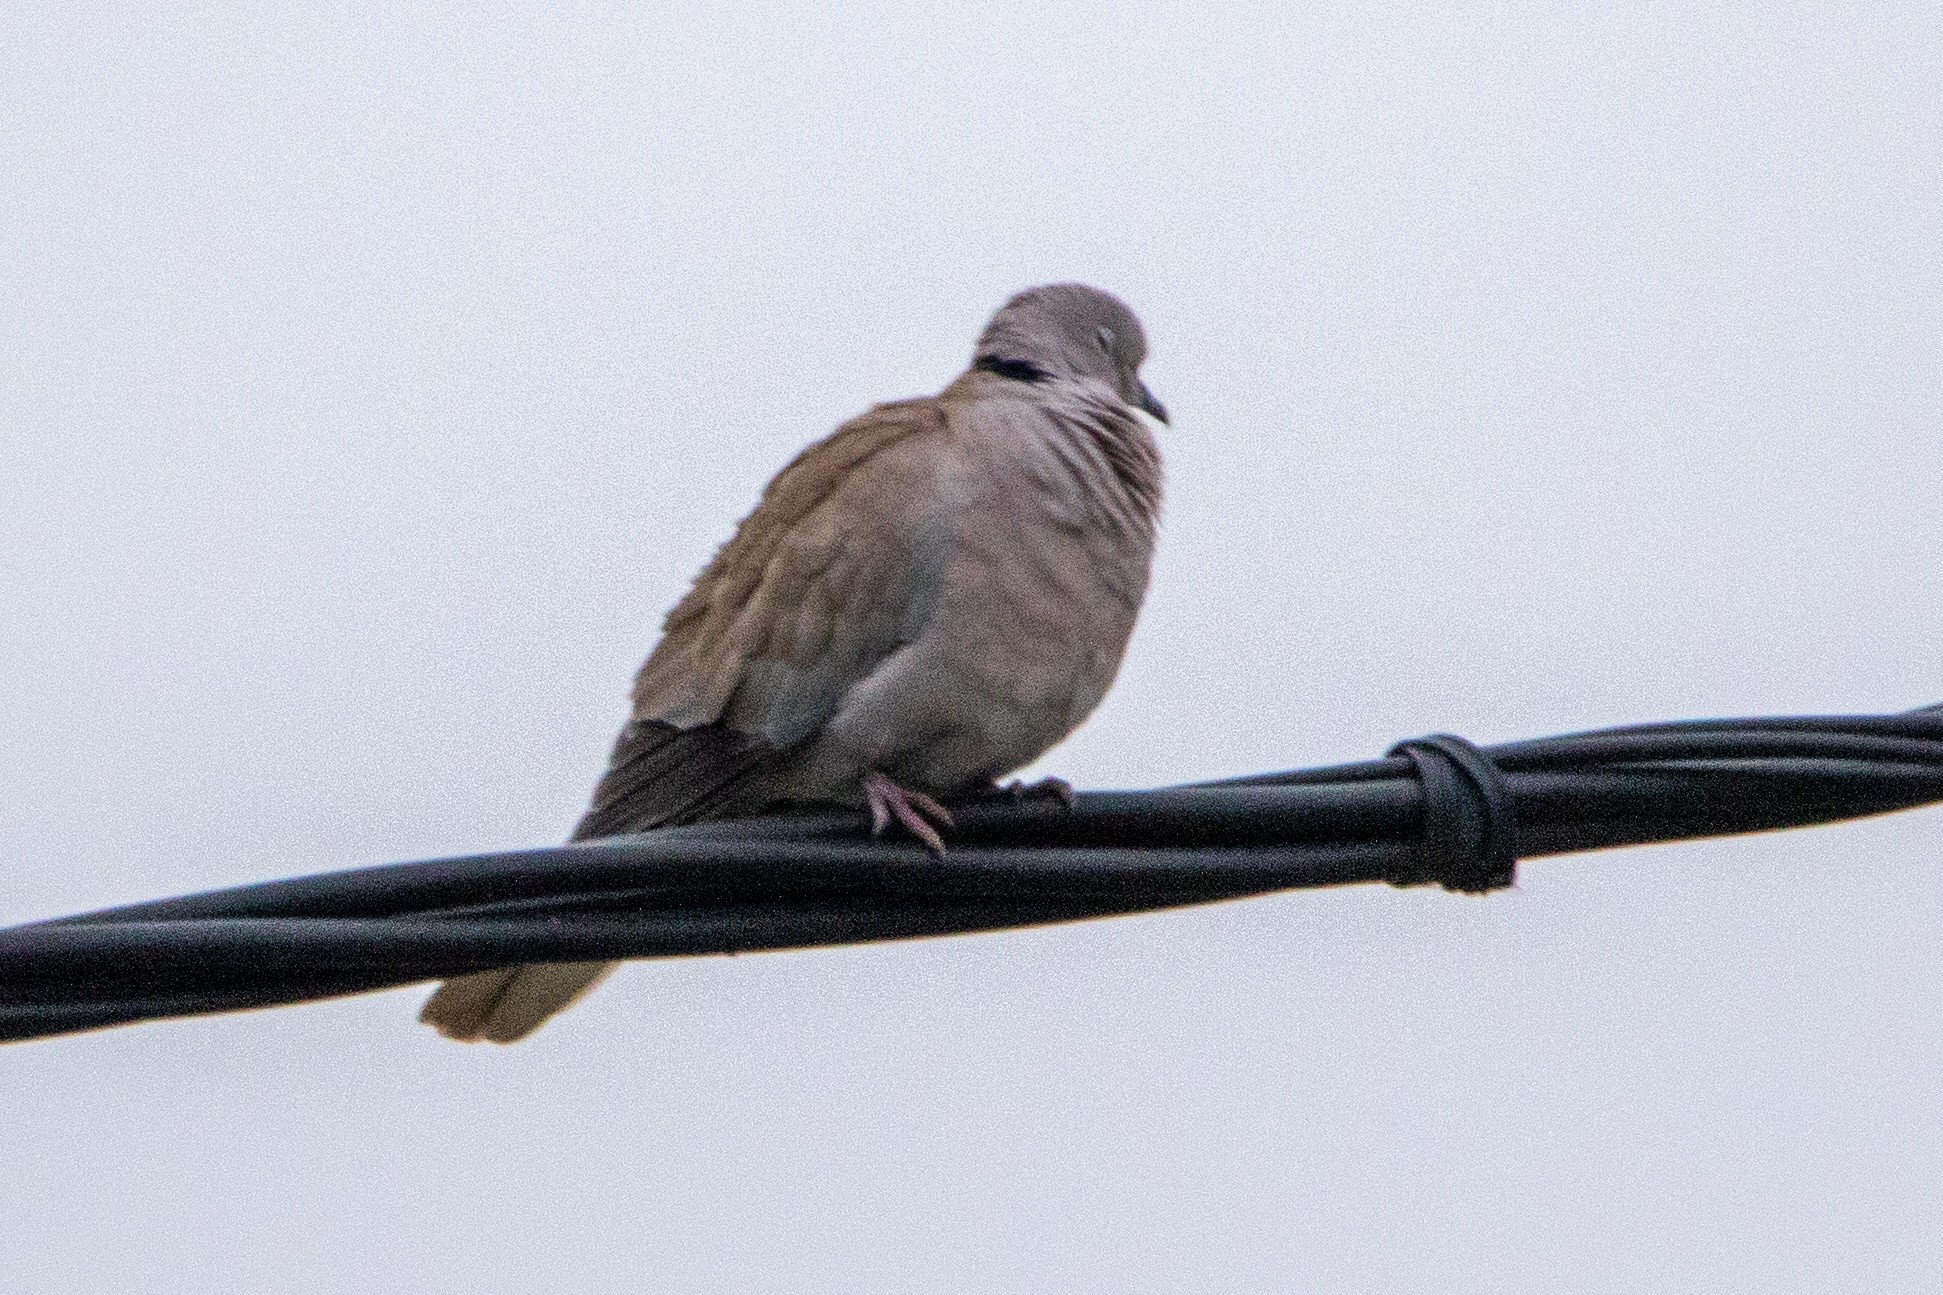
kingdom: Animalia
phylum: Chordata
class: Aves
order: Columbiformes
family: Columbidae
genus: Streptopelia
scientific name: Streptopelia decaocto
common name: Eurasian collared dove
